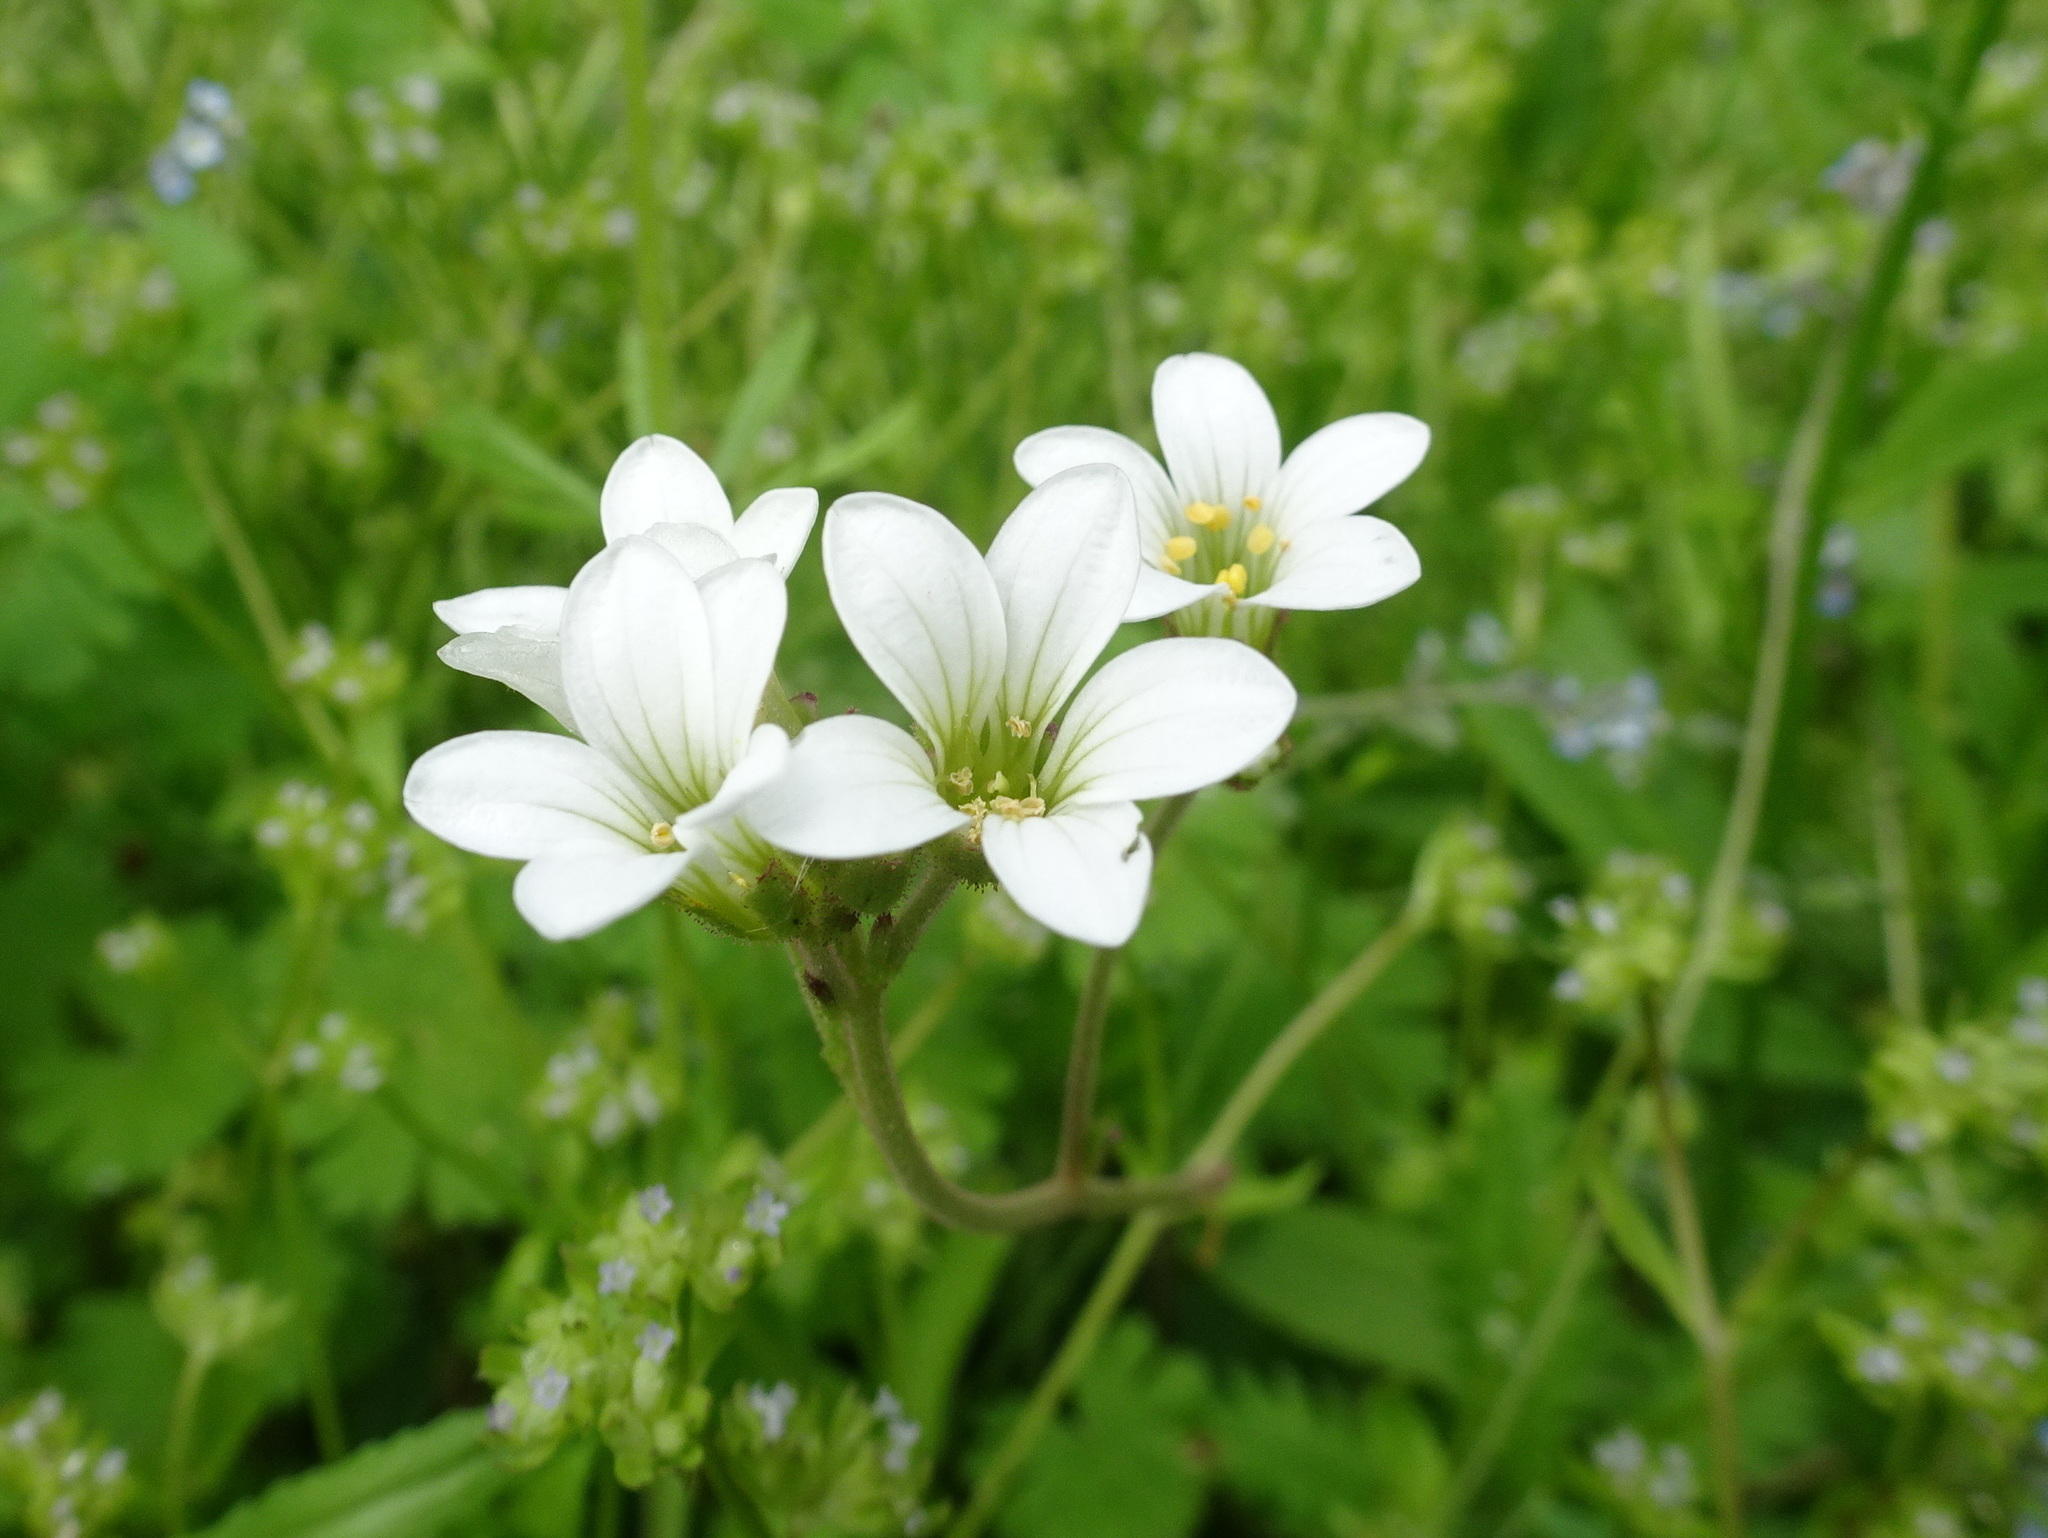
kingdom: Plantae
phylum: Tracheophyta
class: Magnoliopsida
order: Saxifragales
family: Saxifragaceae
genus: Saxifraga
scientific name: Saxifraga granulata
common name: Meadow saxifrage
